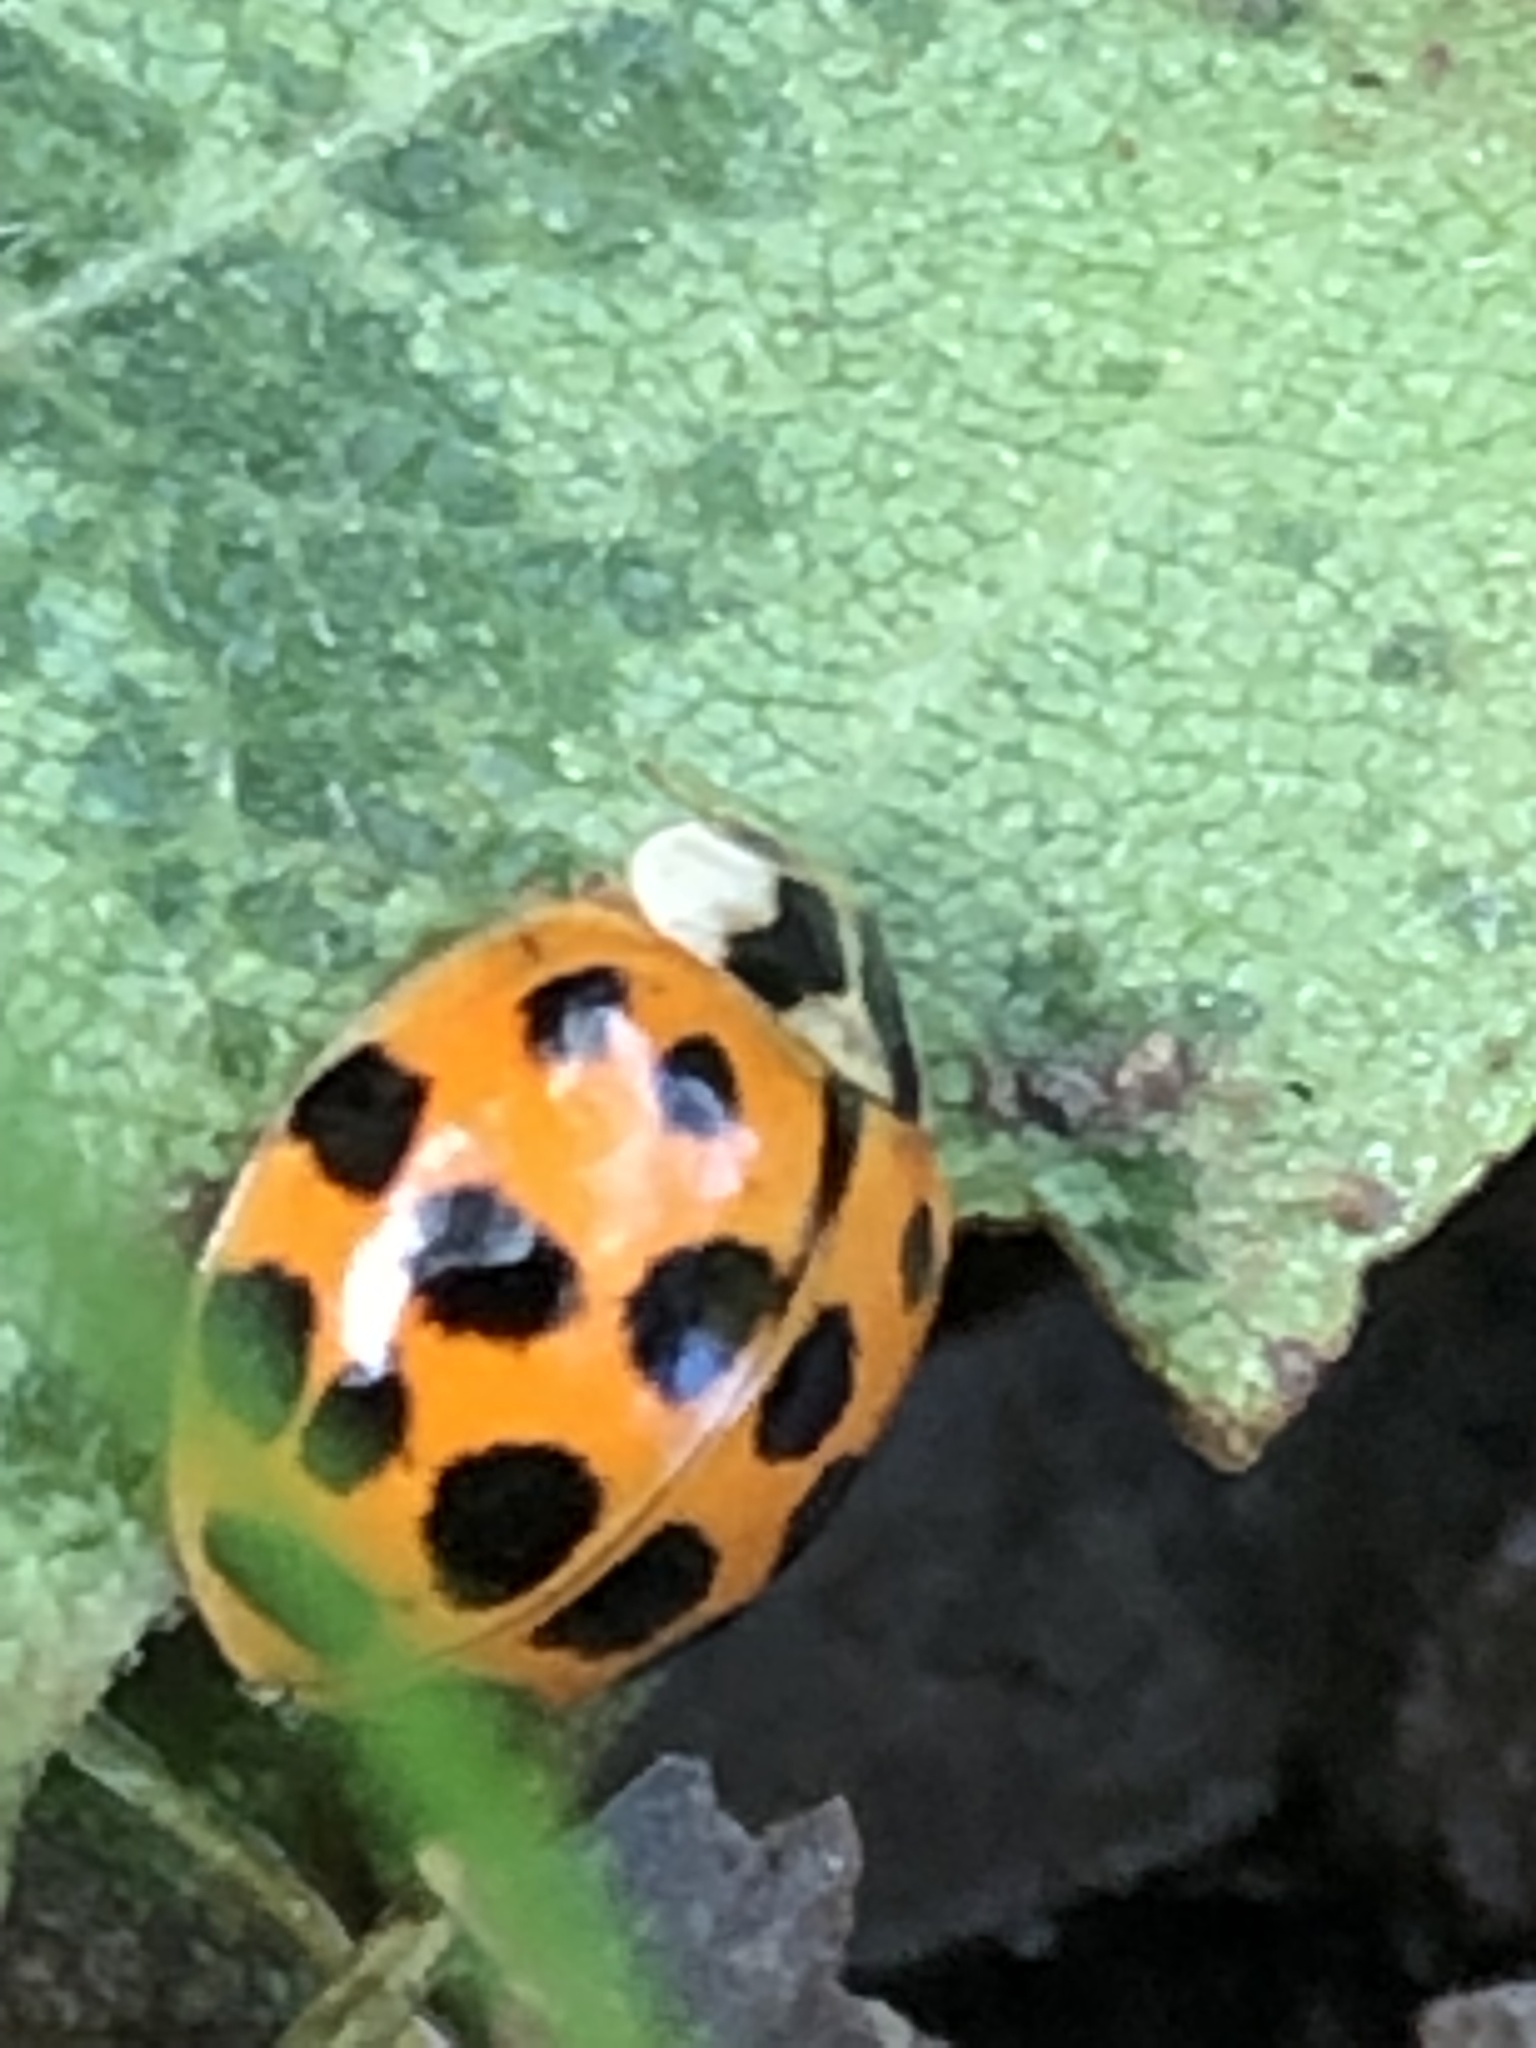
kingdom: Animalia
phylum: Arthropoda
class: Insecta
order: Coleoptera
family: Coccinellidae
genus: Harmonia
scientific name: Harmonia axyridis
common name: Harlequin ladybird
